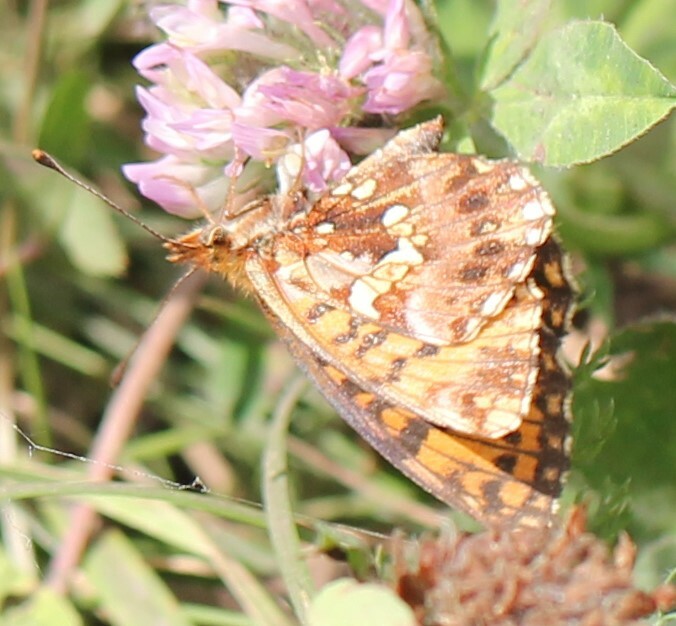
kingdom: Animalia
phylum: Arthropoda
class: Insecta
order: Lepidoptera
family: Nymphalidae
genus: Boloria
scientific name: Boloria dia
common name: Weaver's fritillary
